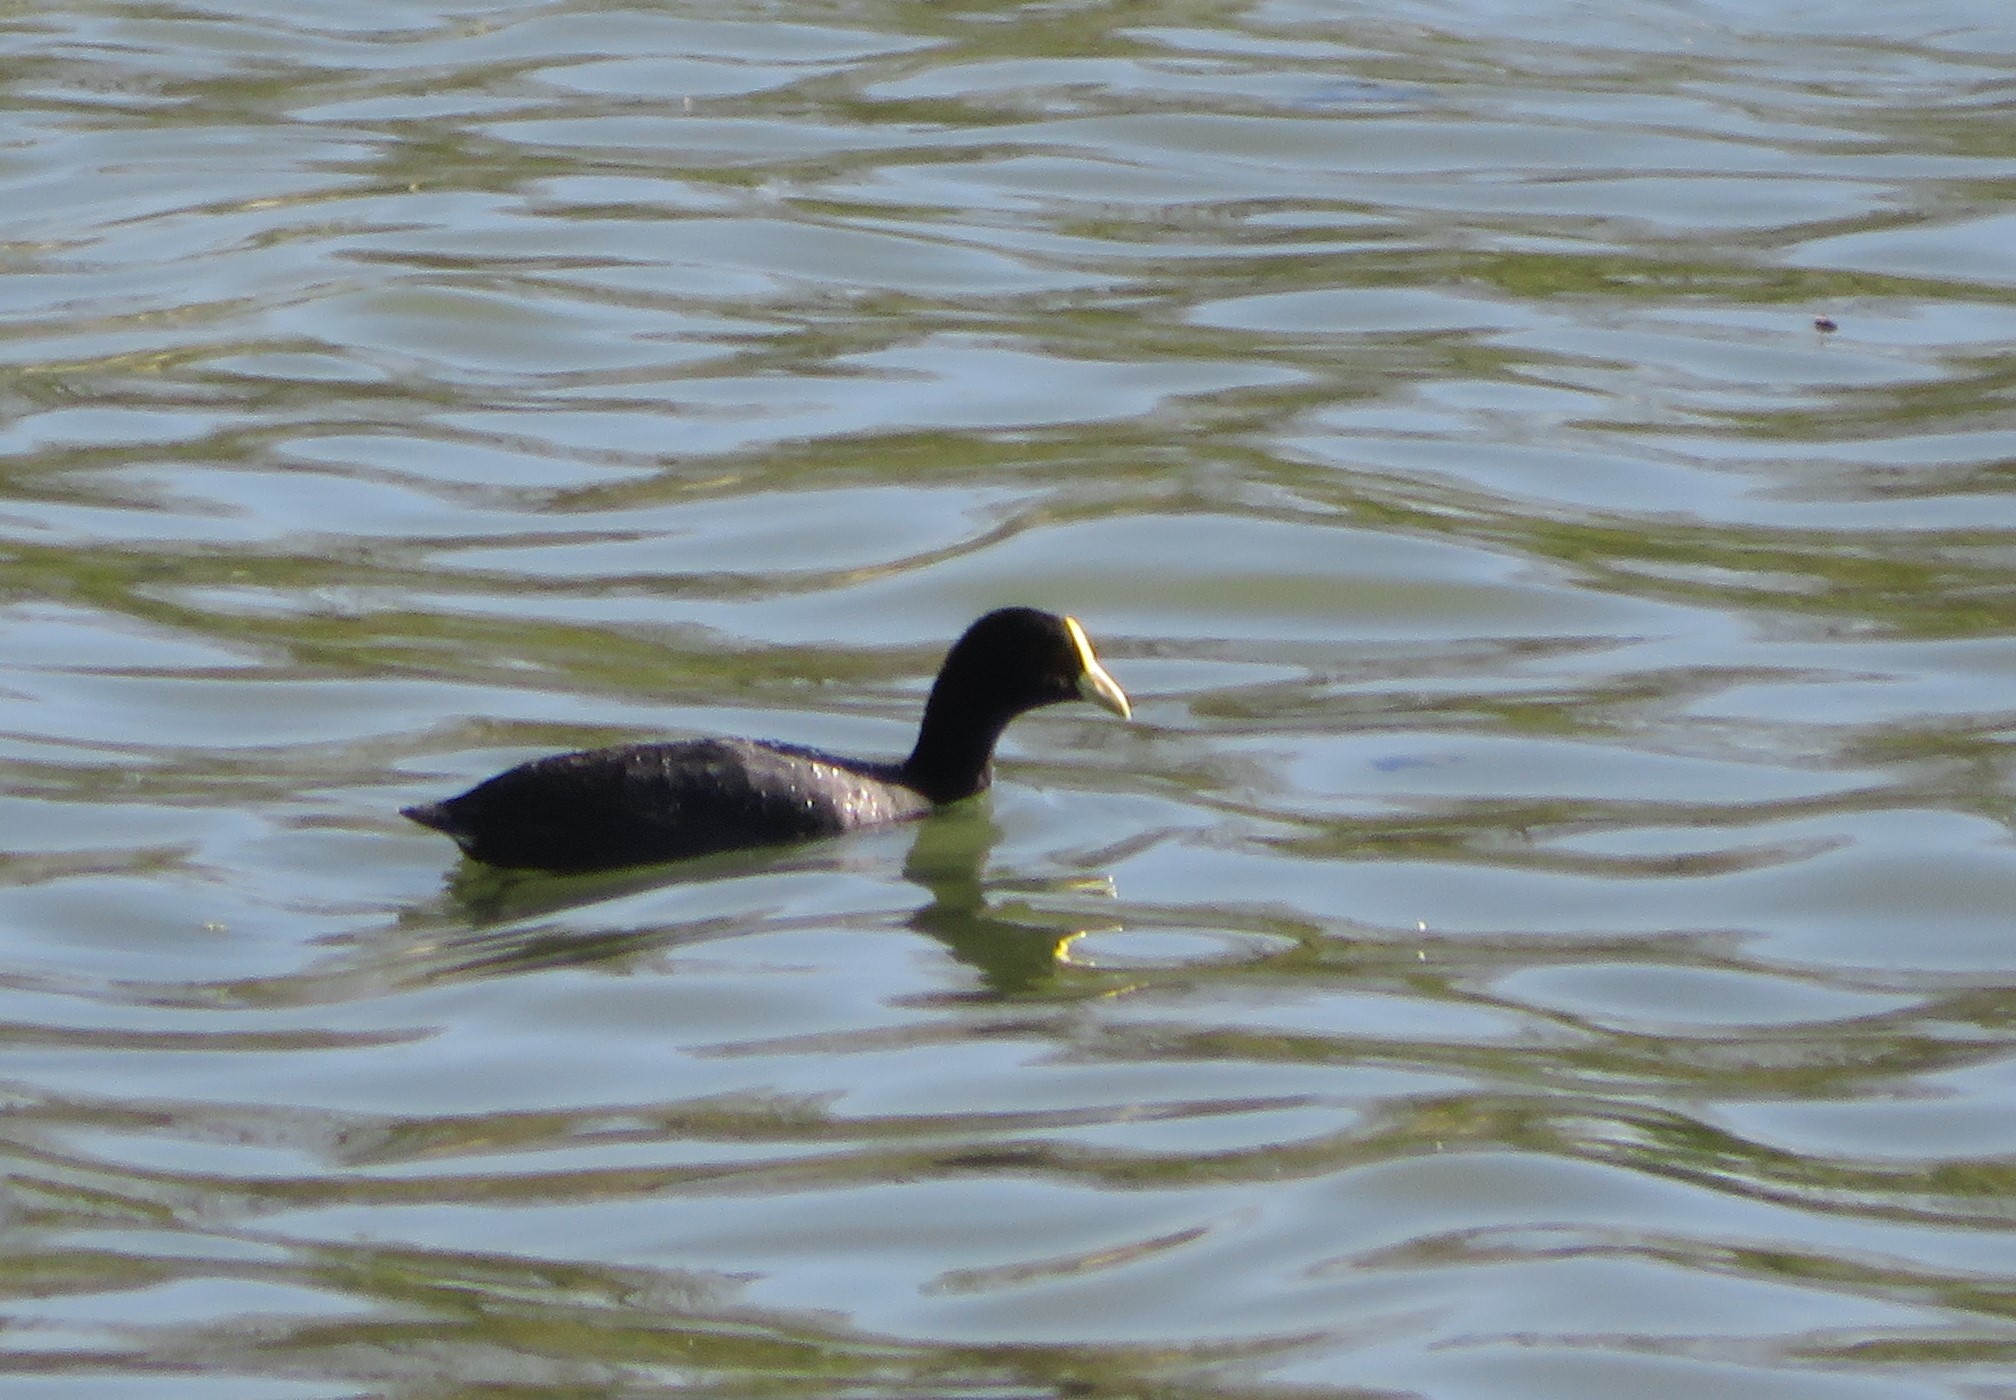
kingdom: Animalia
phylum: Chordata
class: Aves
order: Gruiformes
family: Rallidae
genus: Fulica
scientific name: Fulica leucoptera
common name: White-winged coot
